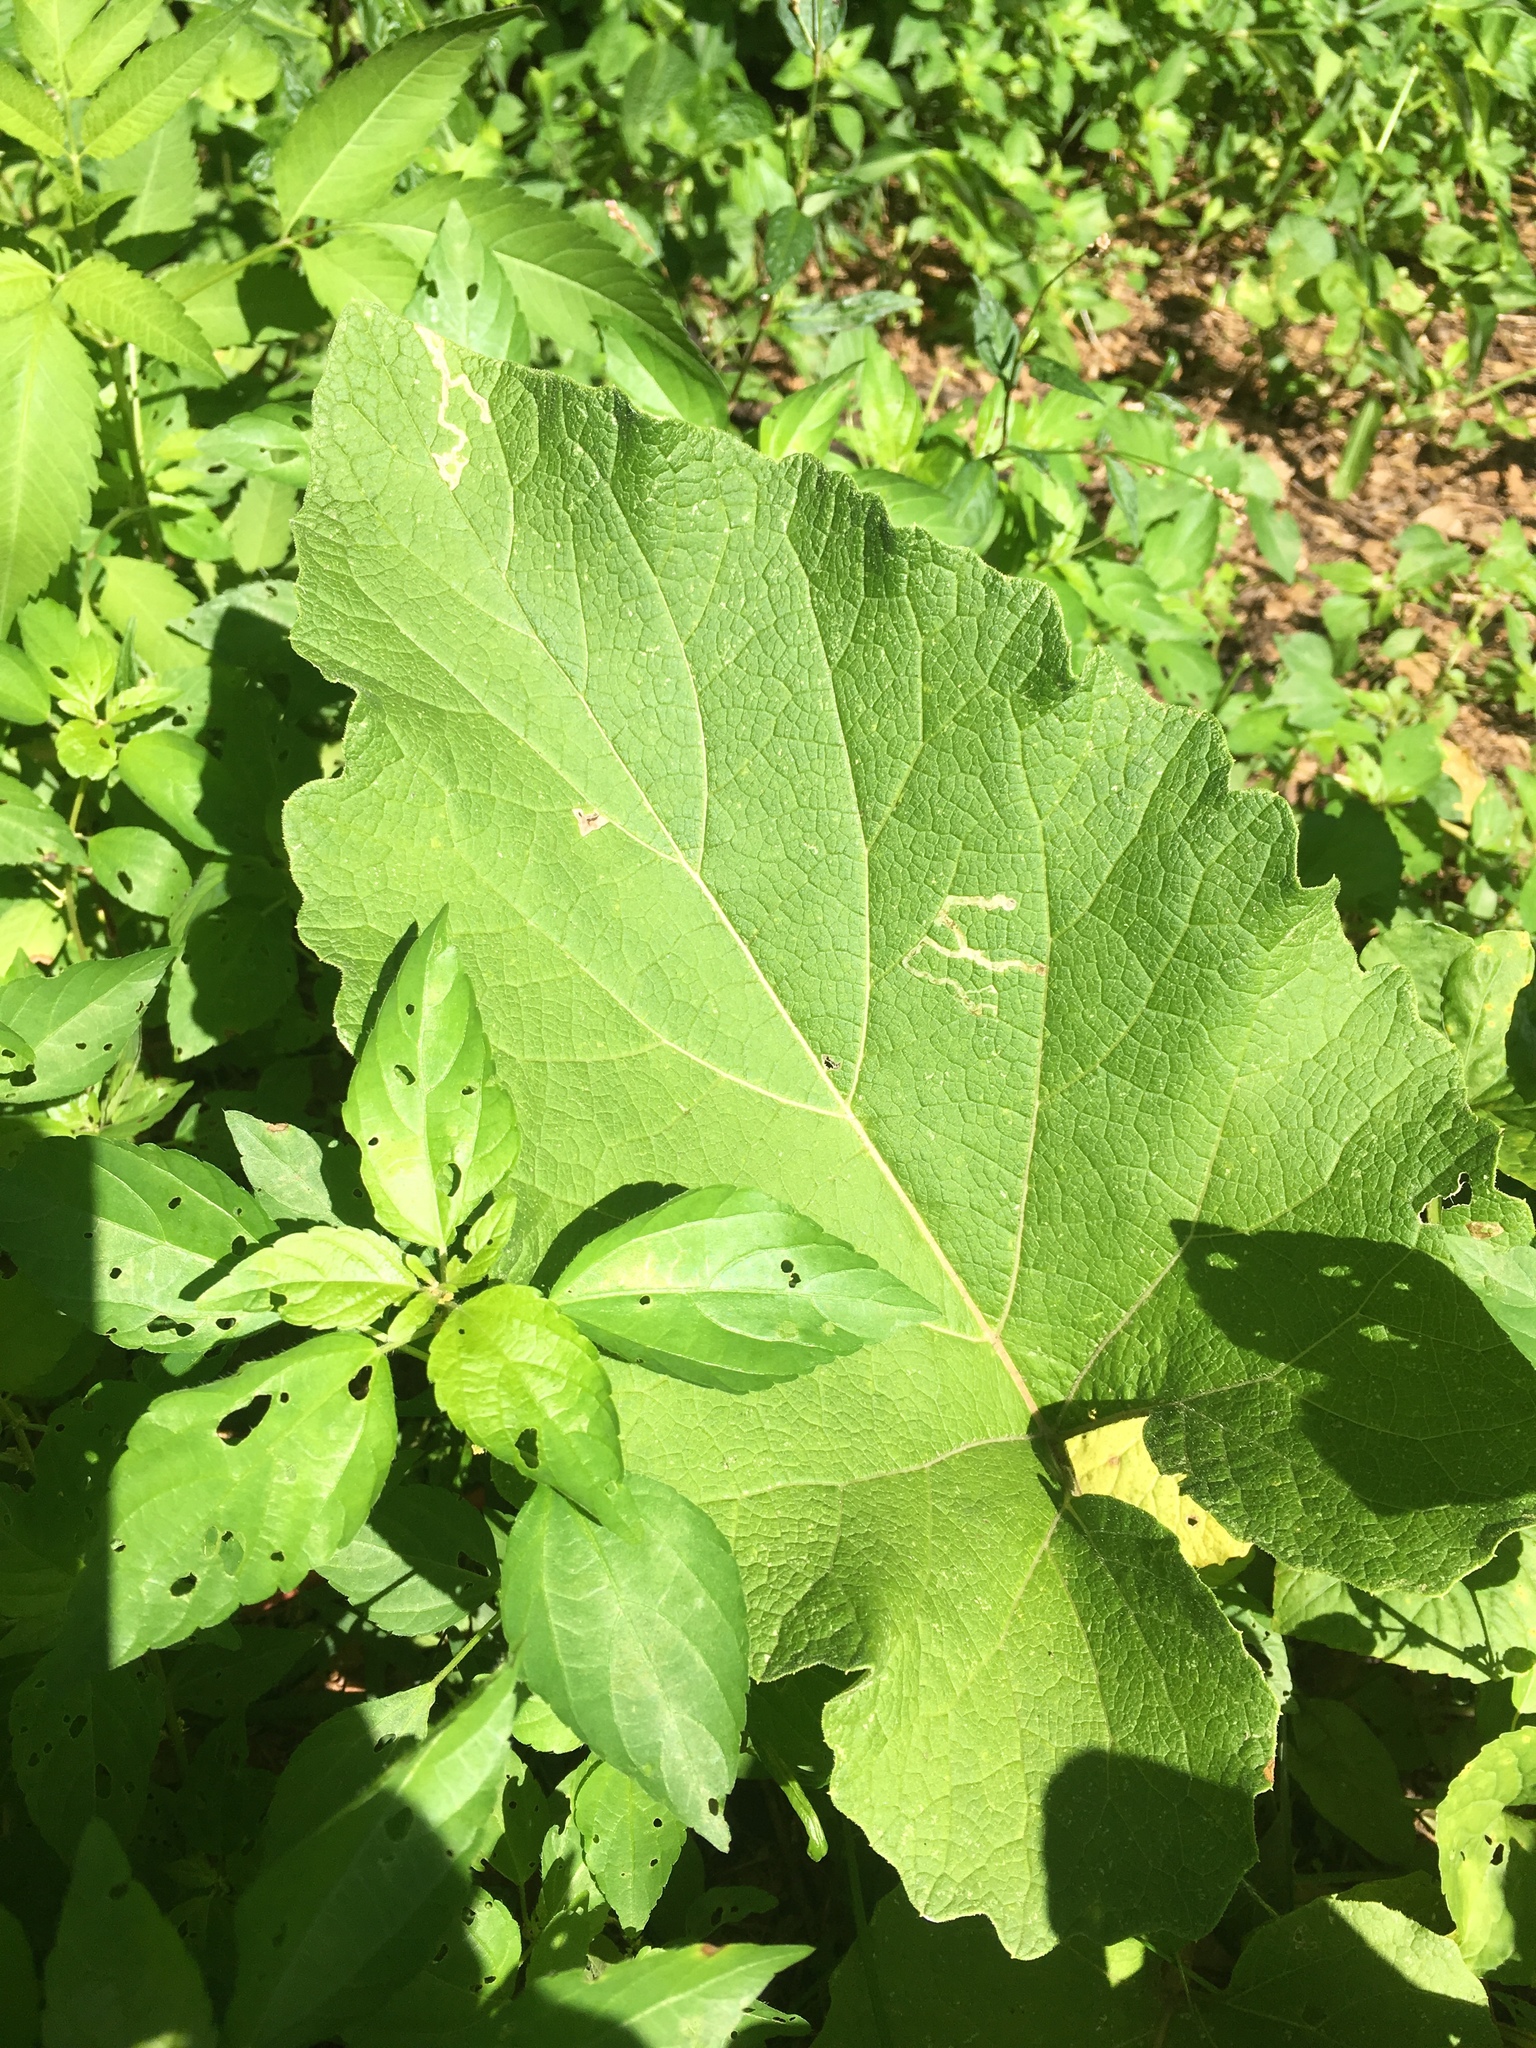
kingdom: Plantae
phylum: Tracheophyta
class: Magnoliopsida
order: Asterales
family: Asteraceae
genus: Arctium
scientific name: Arctium
